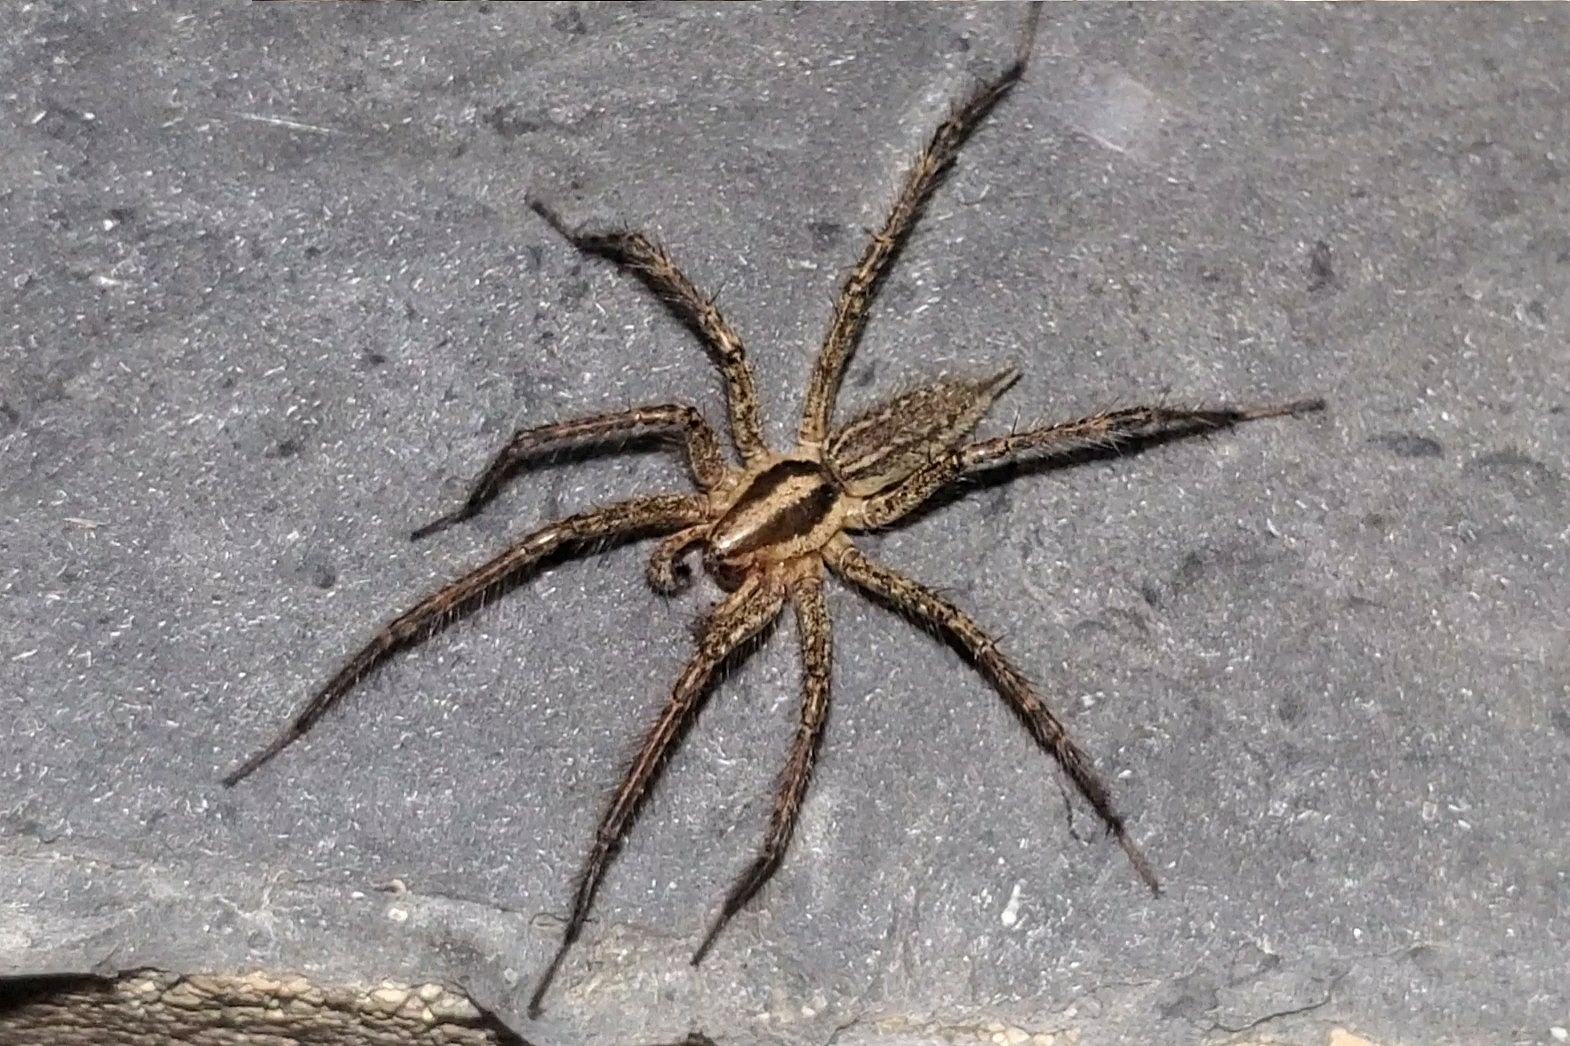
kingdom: Animalia
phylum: Arthropoda
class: Arachnida
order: Araneae
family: Agelenidae
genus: Agelenopsis
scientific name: Agelenopsis
